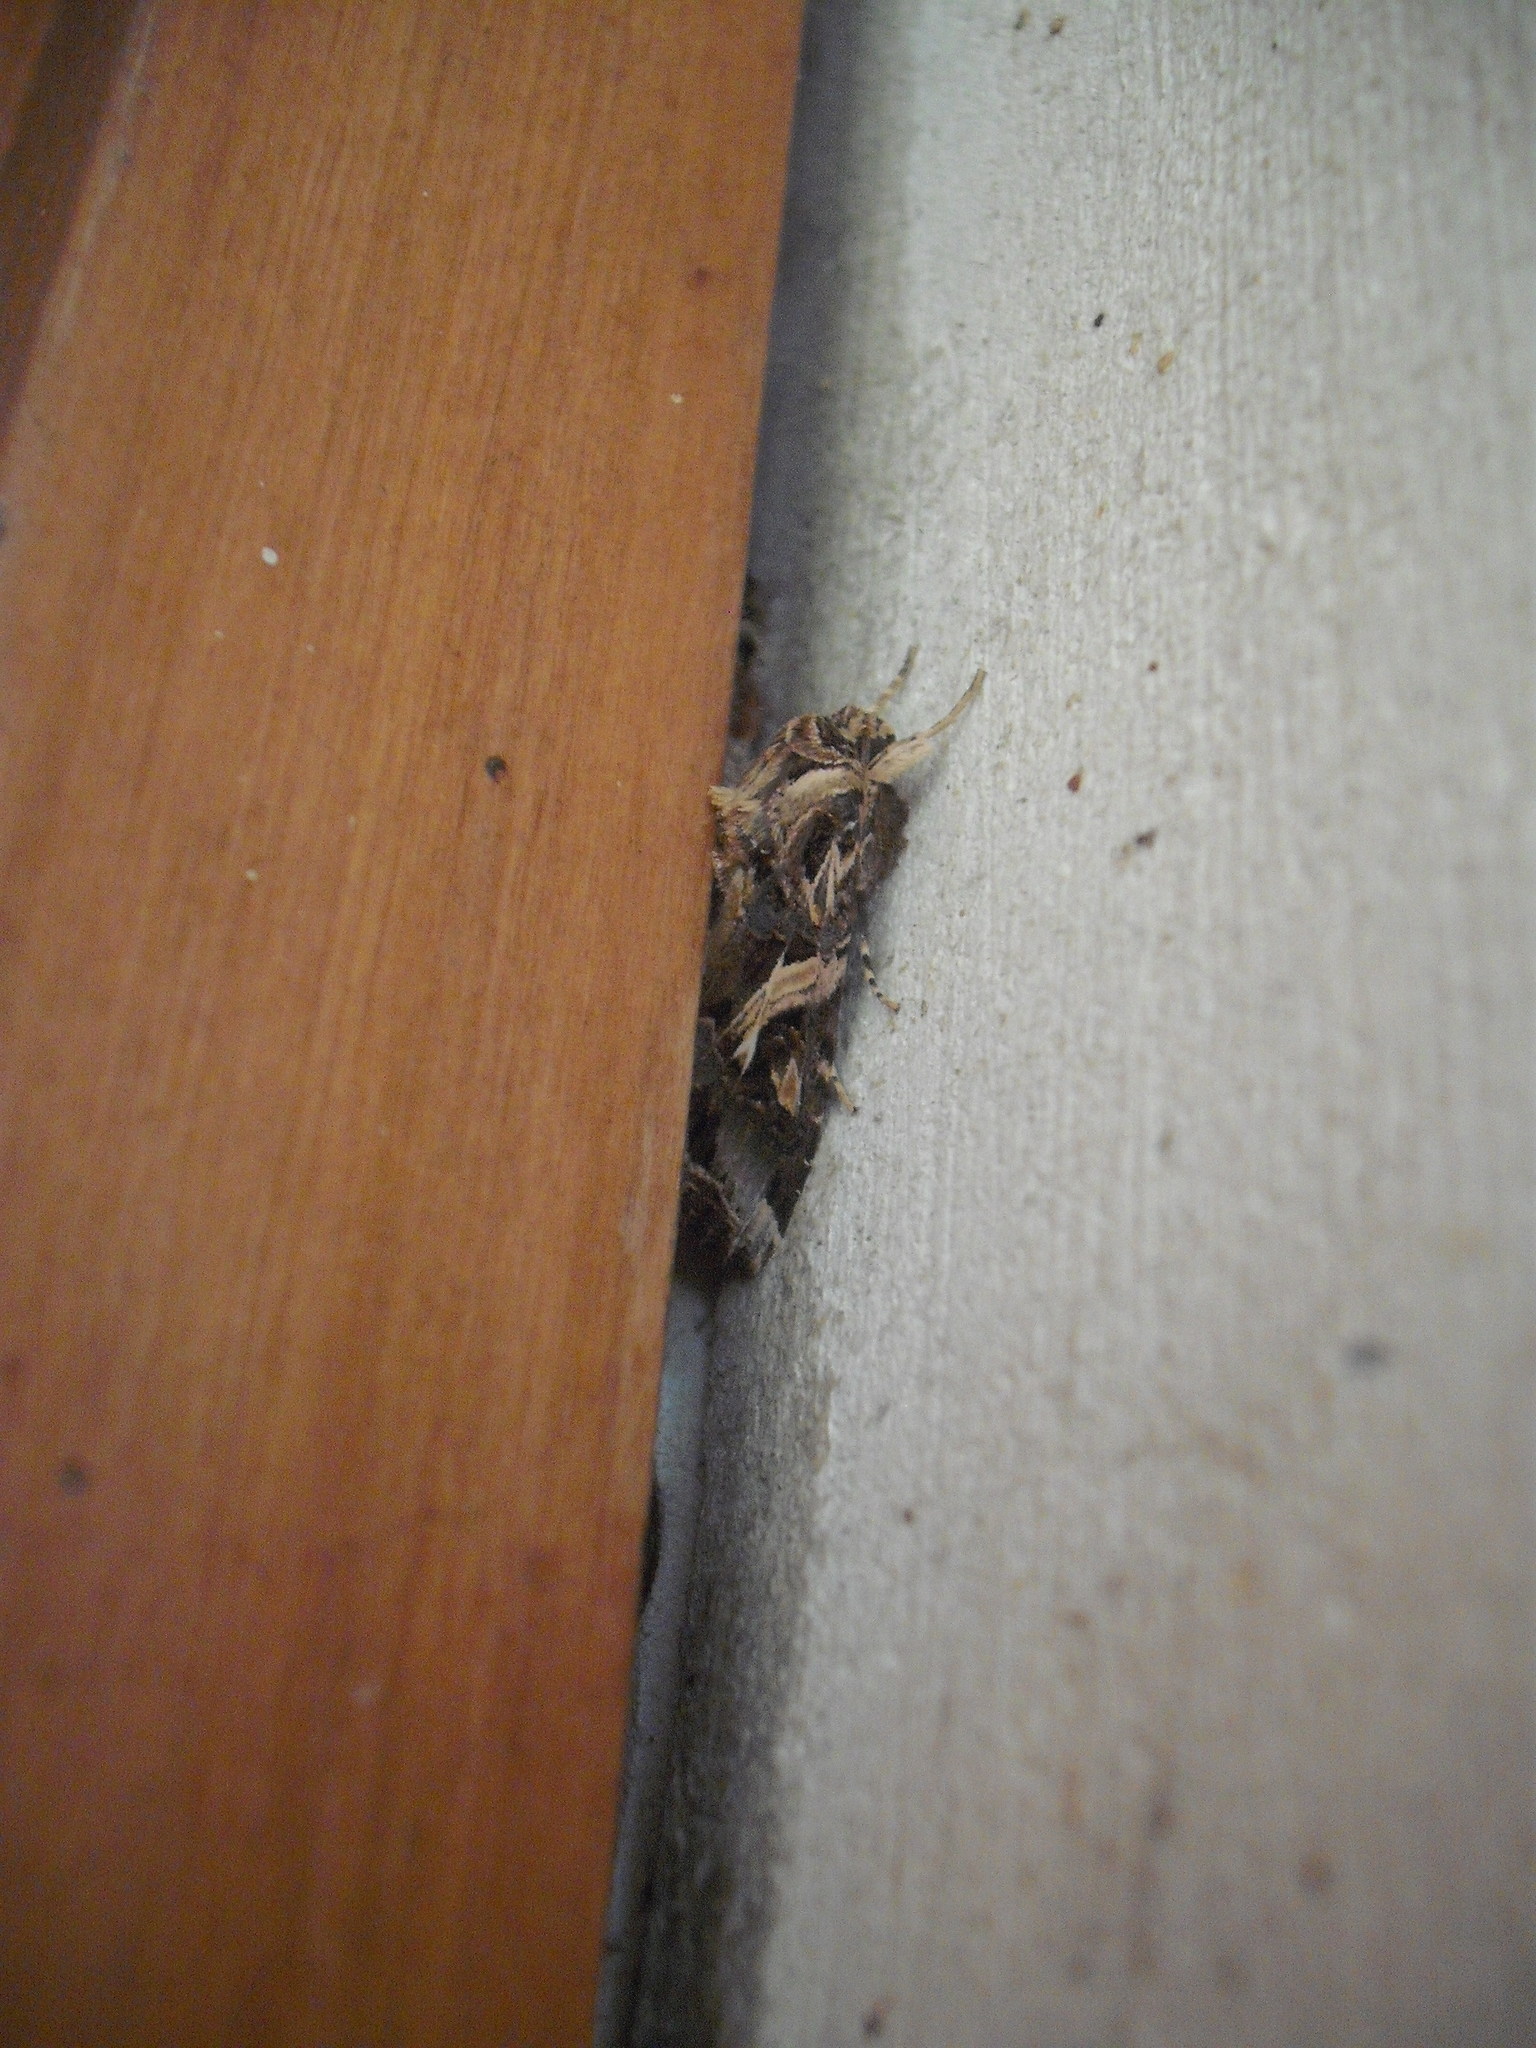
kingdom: Animalia
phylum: Arthropoda
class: Insecta
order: Lepidoptera
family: Noctuidae
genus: Spodoptera
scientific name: Spodoptera litura
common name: Asian cotton leafworm
